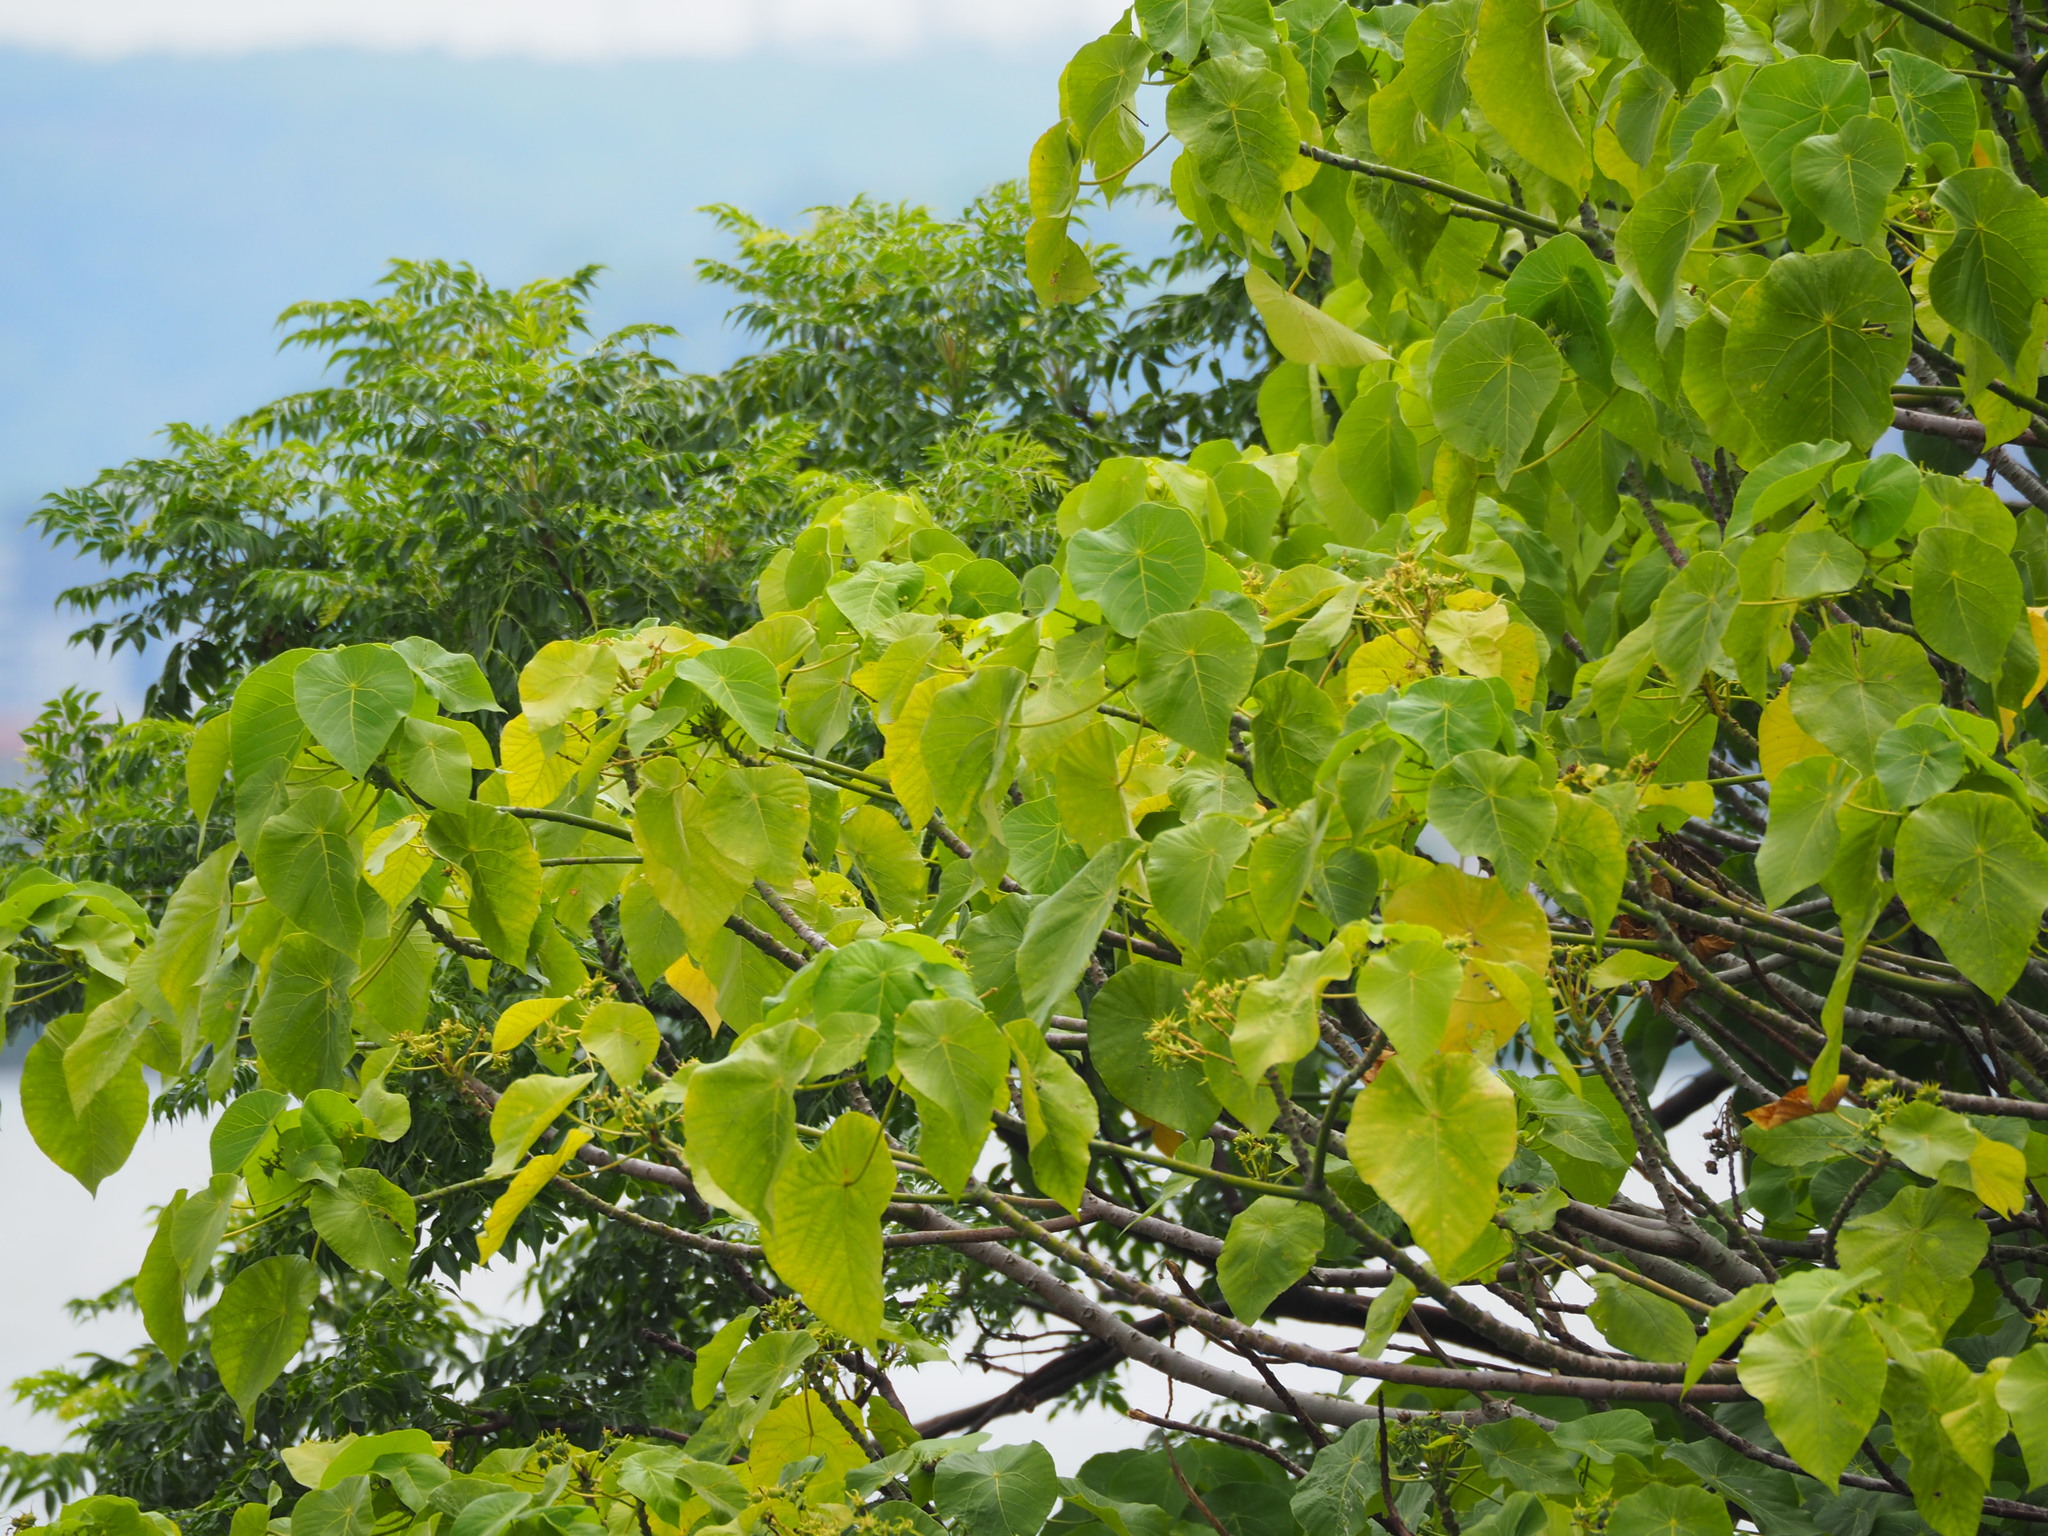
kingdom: Plantae
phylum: Tracheophyta
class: Magnoliopsida
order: Malpighiales
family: Euphorbiaceae
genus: Macaranga
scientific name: Macaranga tanarius
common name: Parasol leaf tree
